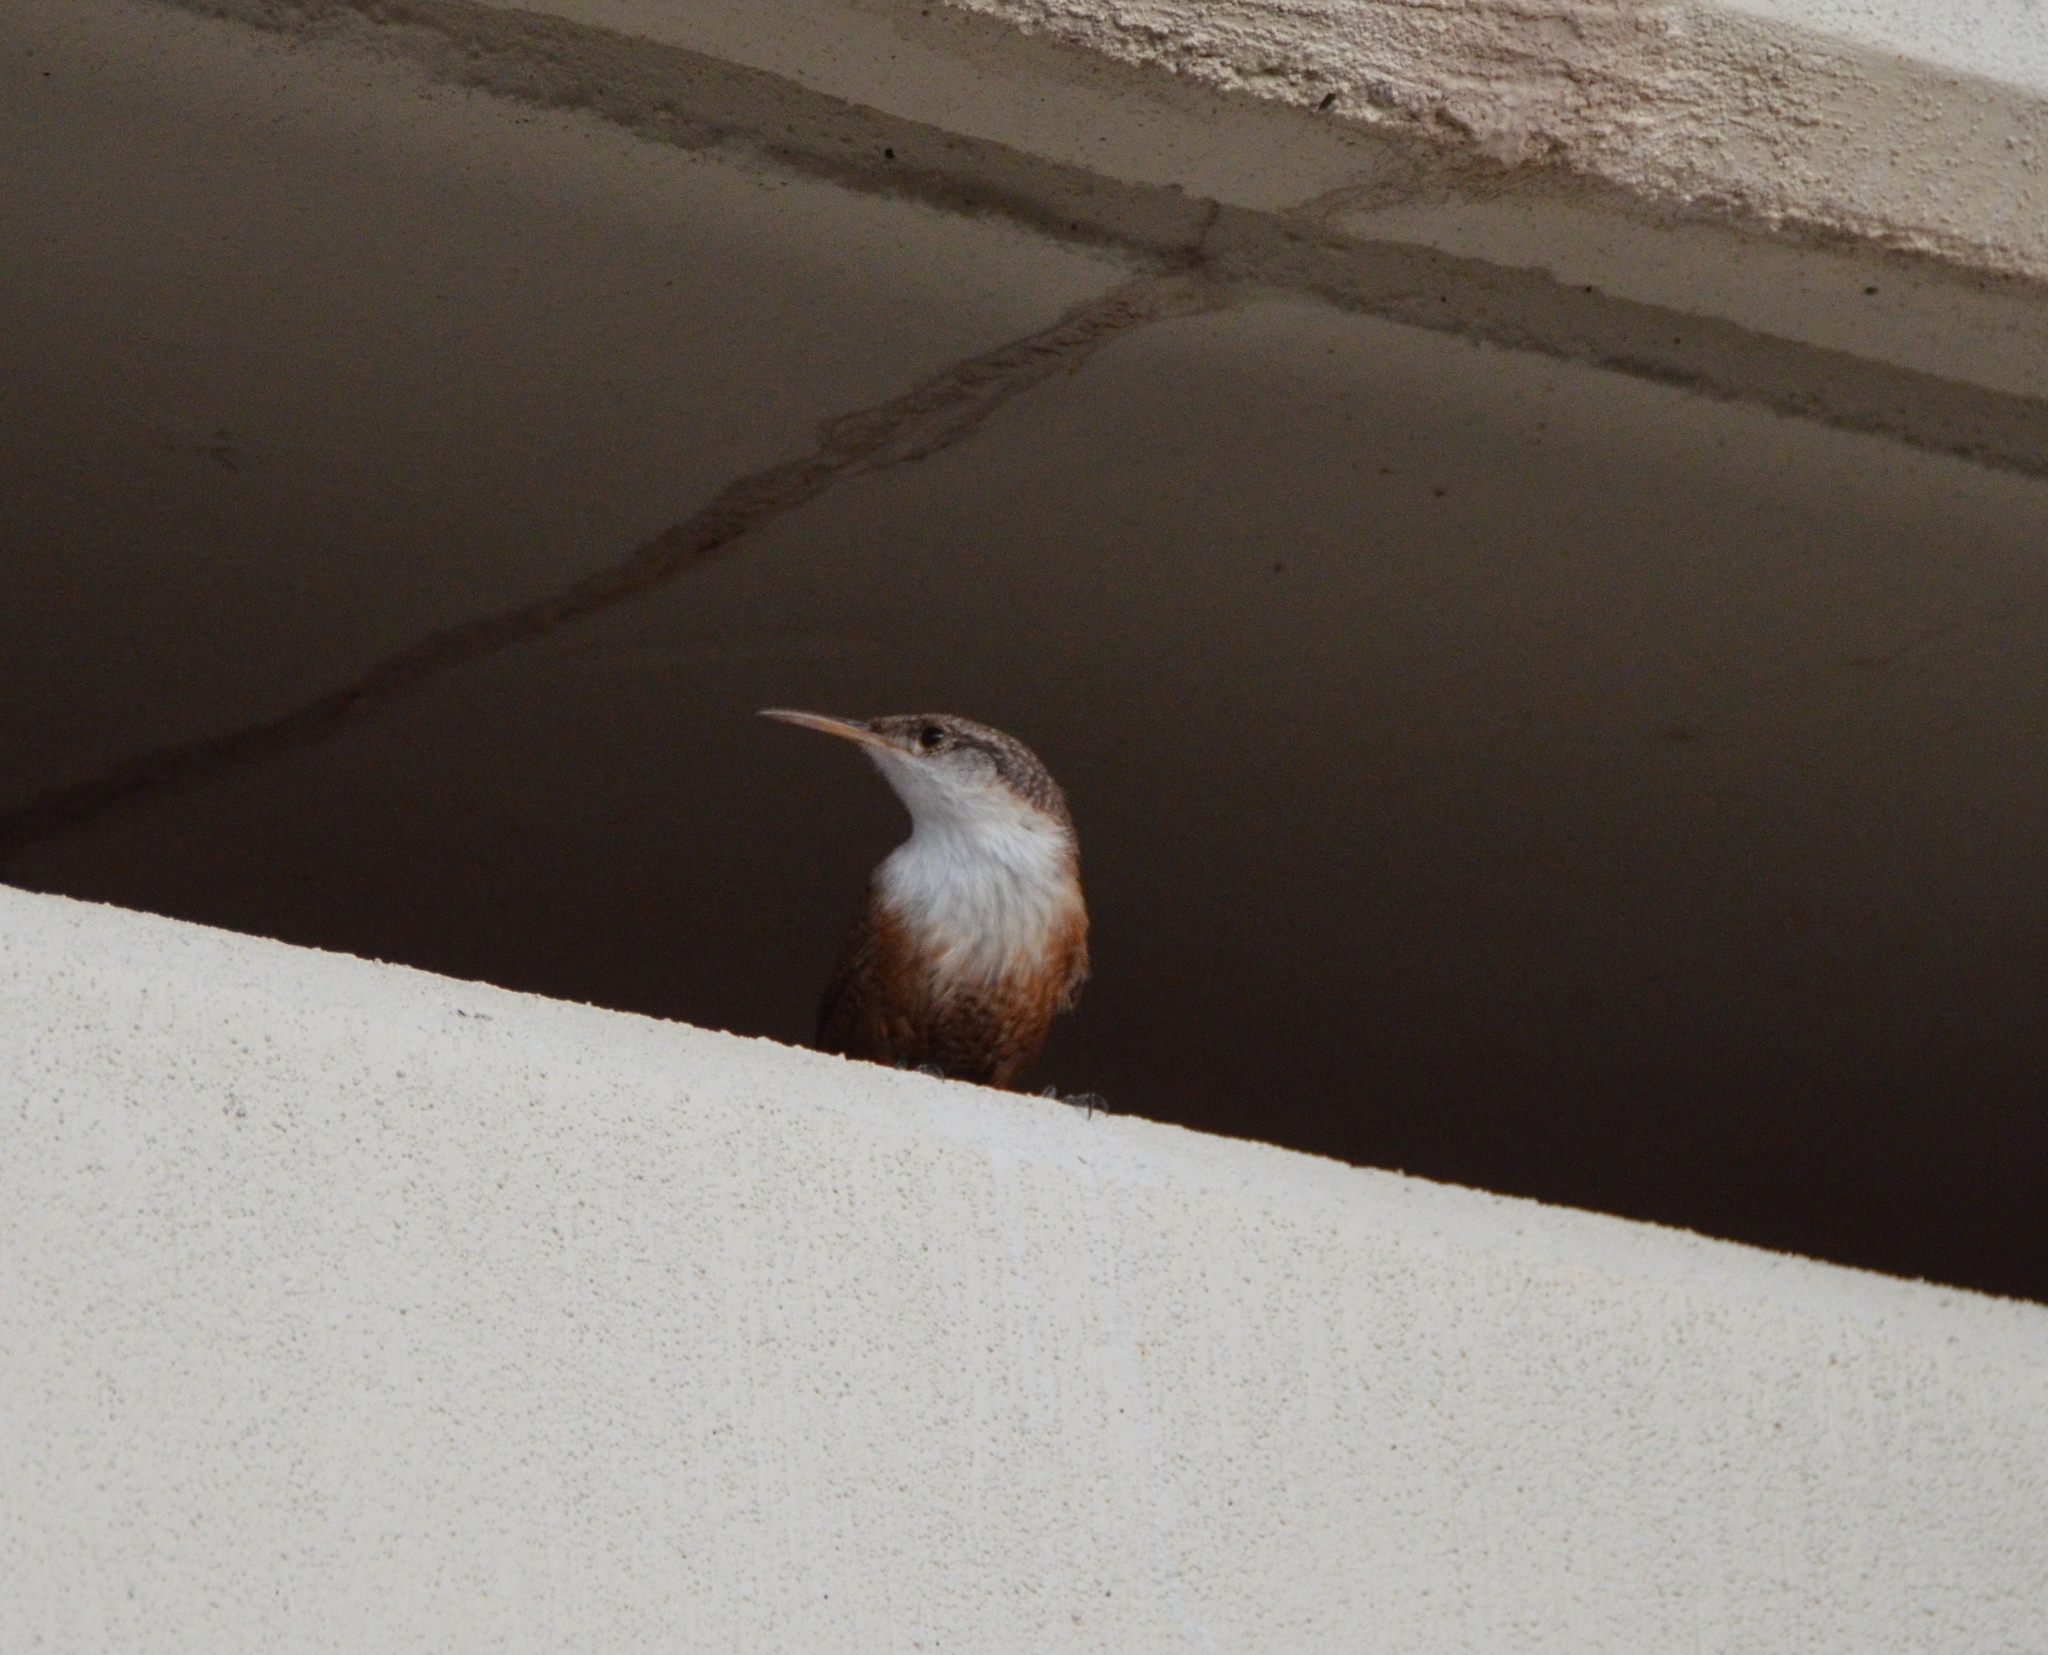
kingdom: Animalia
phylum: Chordata
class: Aves
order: Passeriformes
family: Troglodytidae
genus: Catherpes
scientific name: Catherpes mexicanus
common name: Canyon wren
